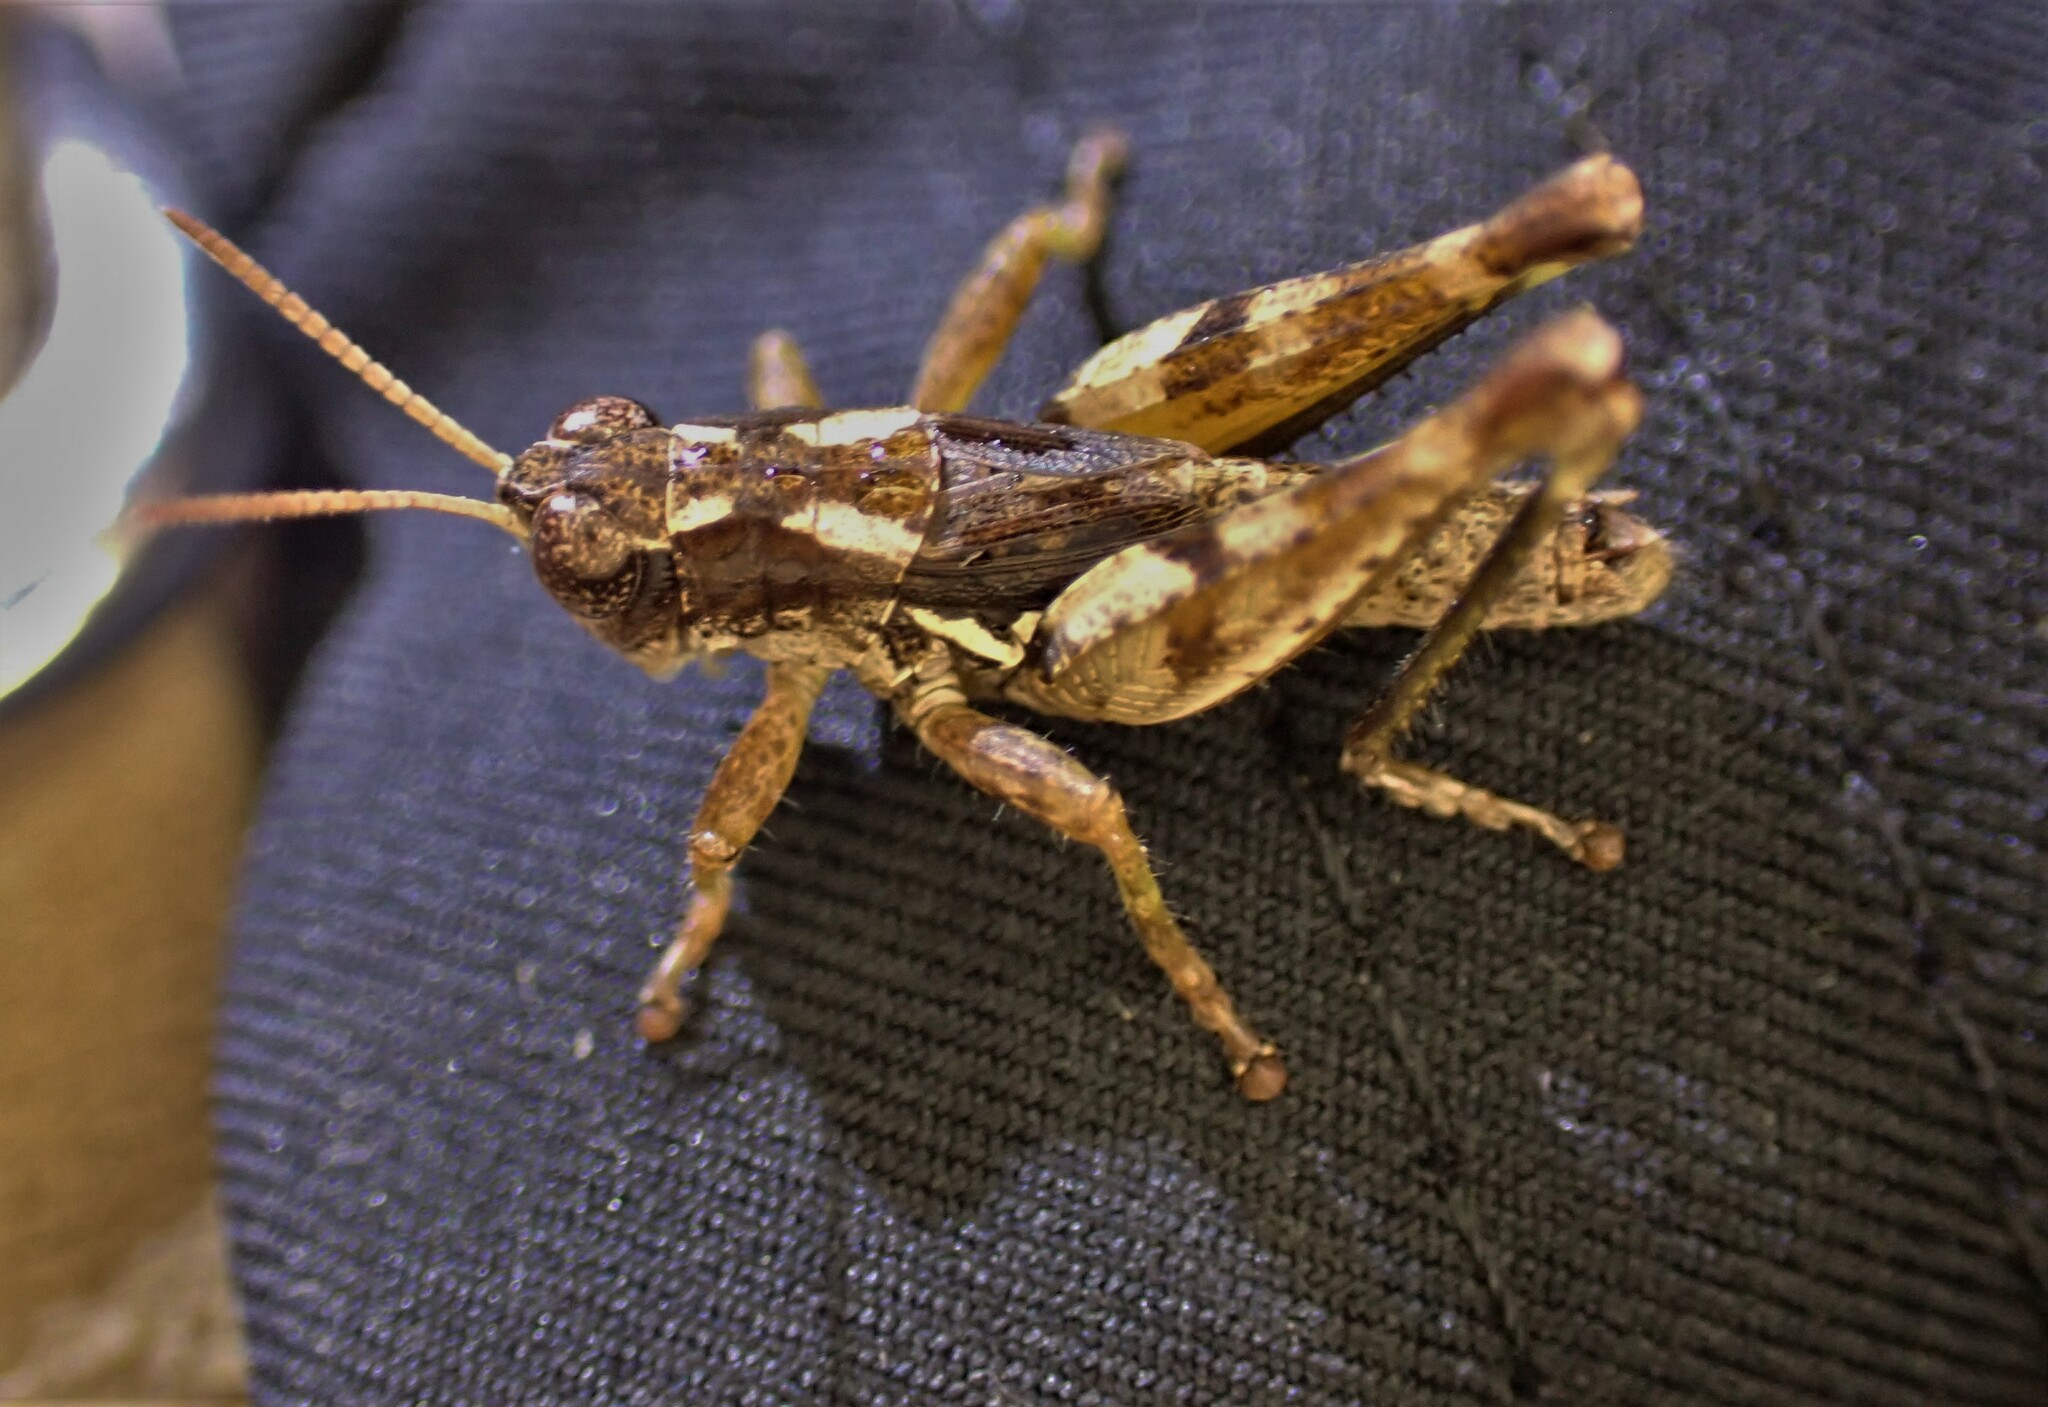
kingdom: Animalia
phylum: Arthropoda
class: Insecta
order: Orthoptera
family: Acrididae
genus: Phaulacridium
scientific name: Phaulacridium marginale
